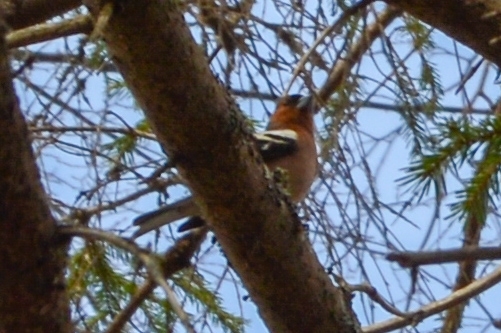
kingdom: Animalia
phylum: Chordata
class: Aves
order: Passeriformes
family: Fringillidae
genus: Fringilla
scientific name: Fringilla coelebs
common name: Common chaffinch
